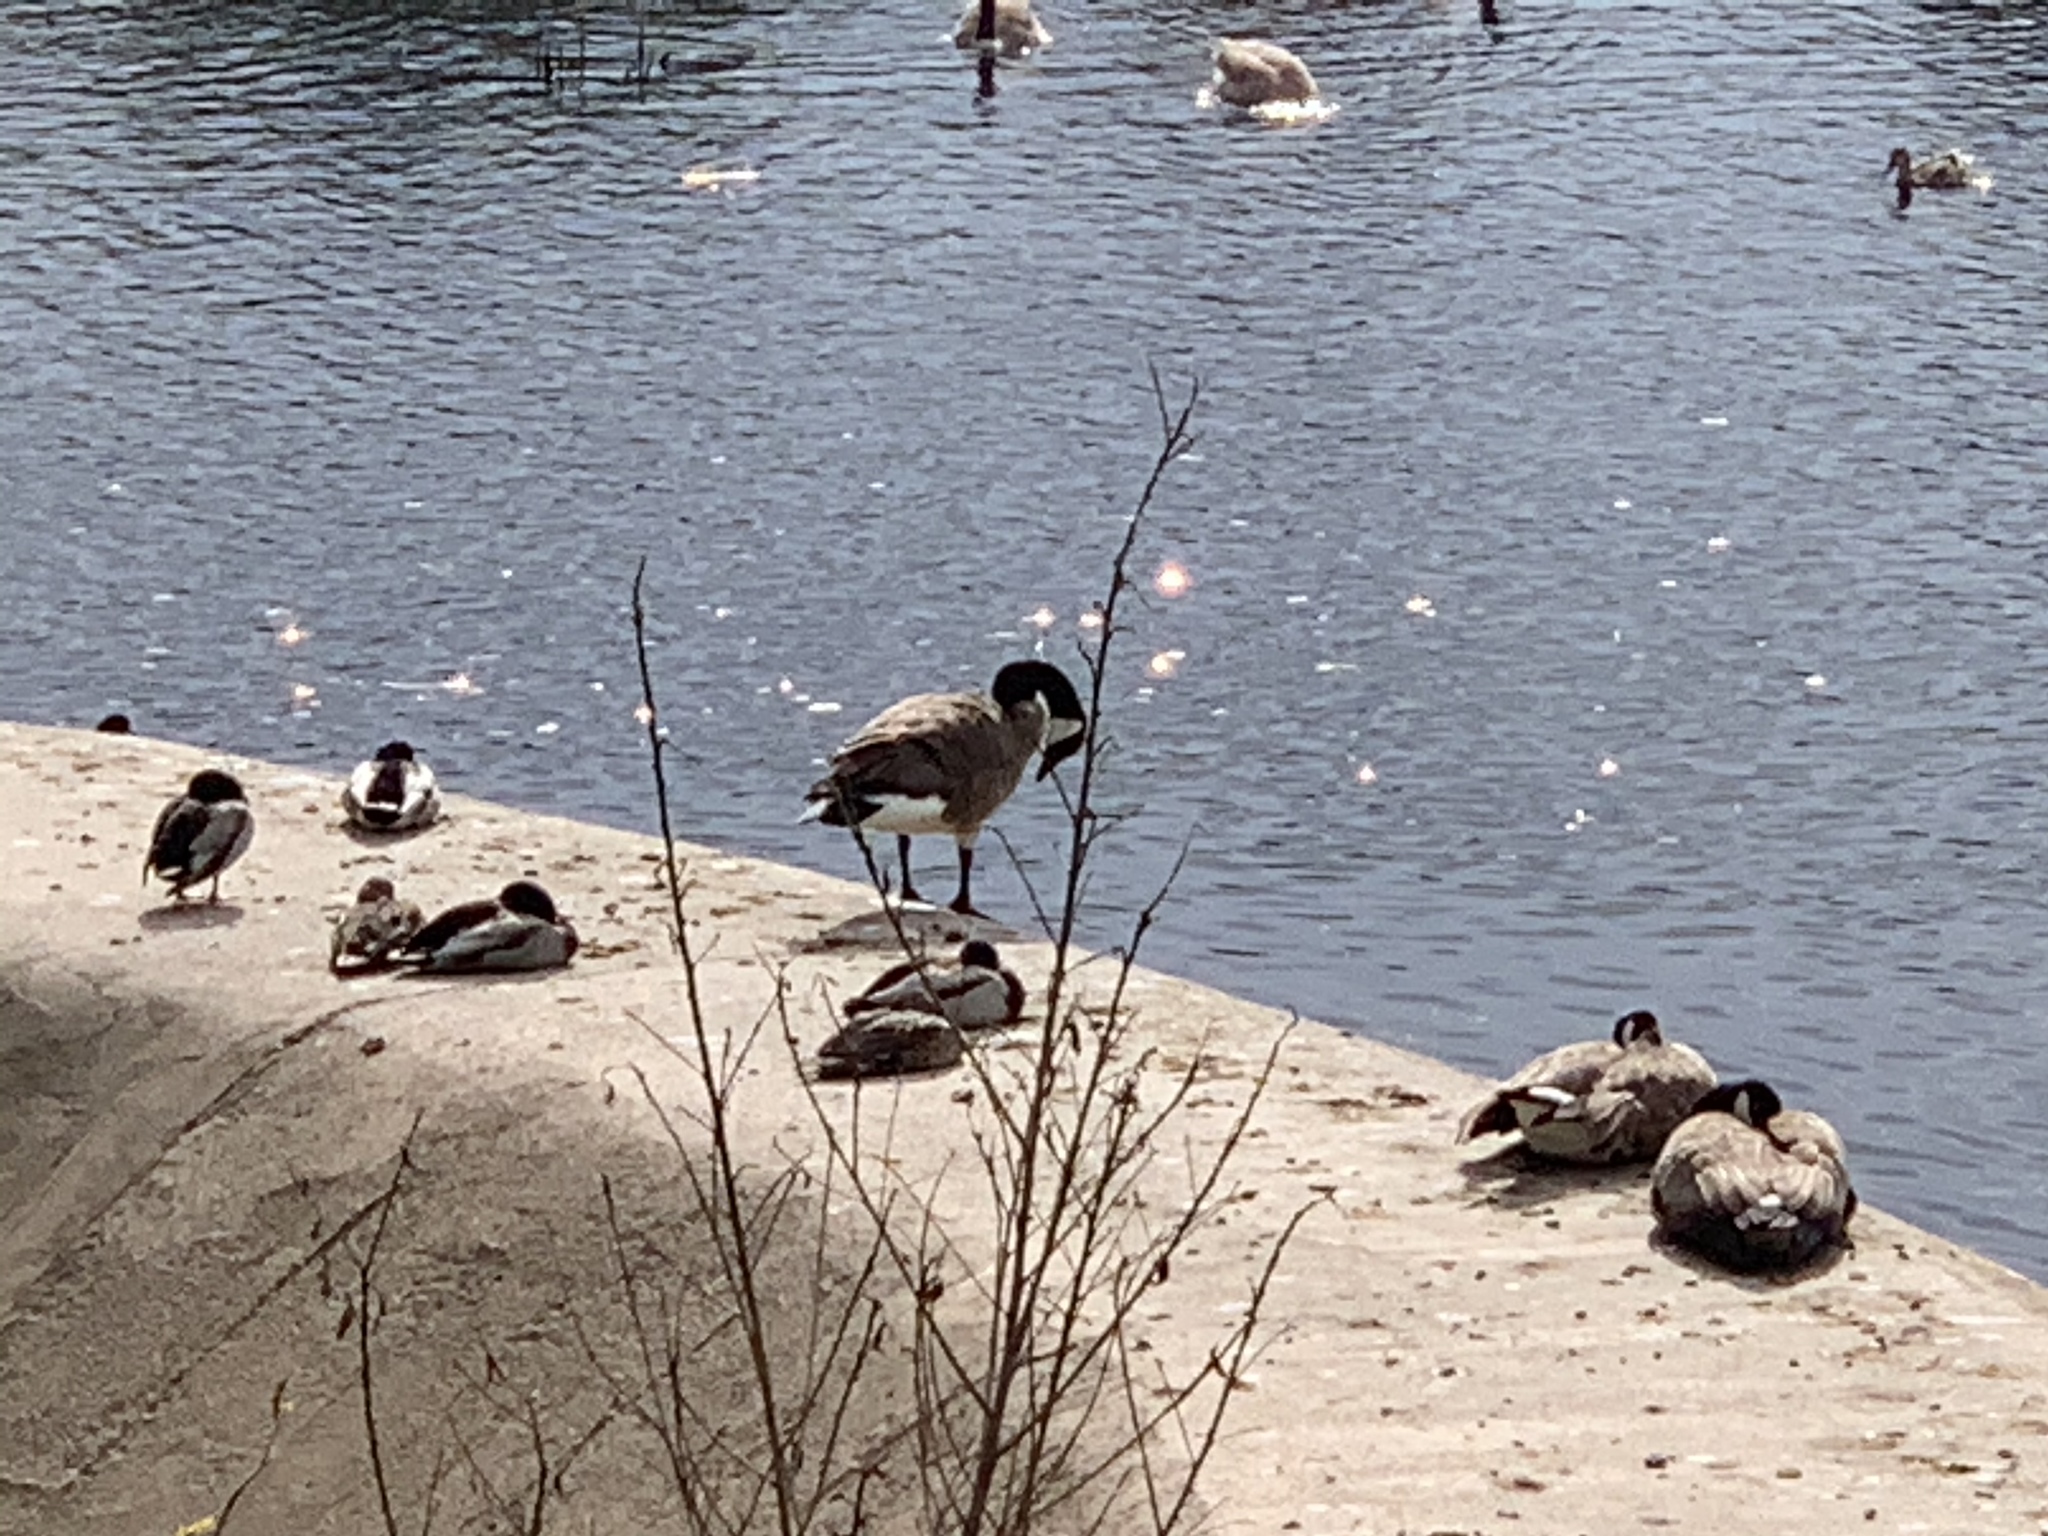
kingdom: Animalia
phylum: Chordata
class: Aves
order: Anseriformes
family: Anatidae
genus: Branta
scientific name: Branta canadensis
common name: Canada goose
